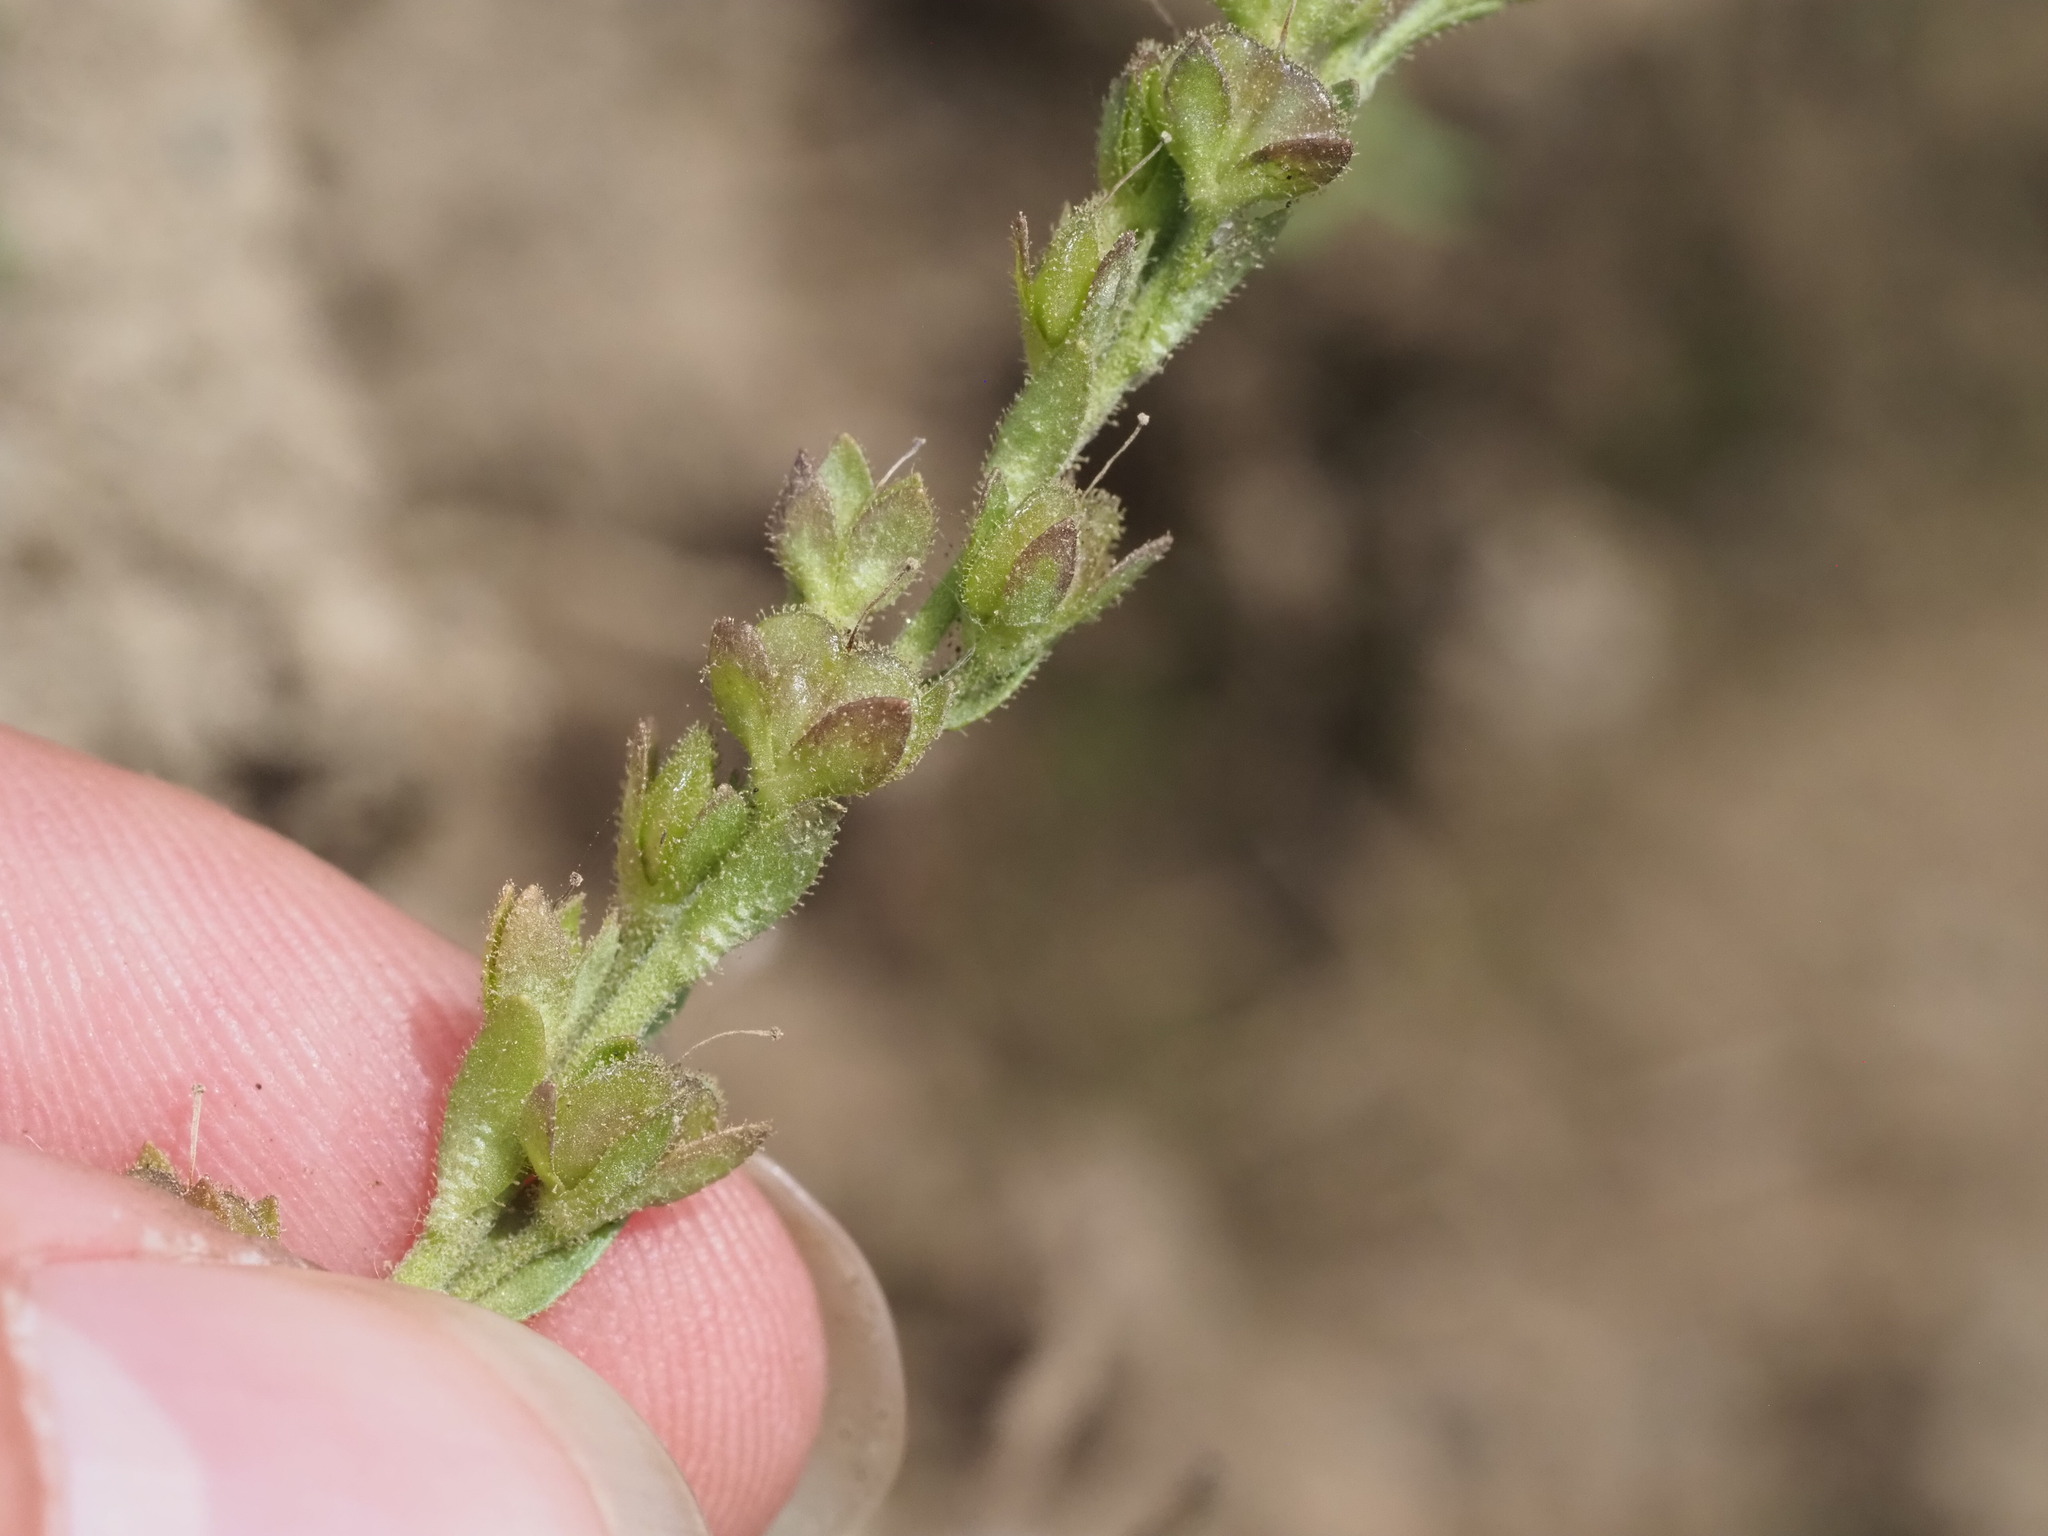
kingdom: Plantae
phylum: Tracheophyta
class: Magnoliopsida
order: Lamiales
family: Plantaginaceae
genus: Veronica
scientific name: Veronica serpyllifolia
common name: Thyme-leaved speedwell
